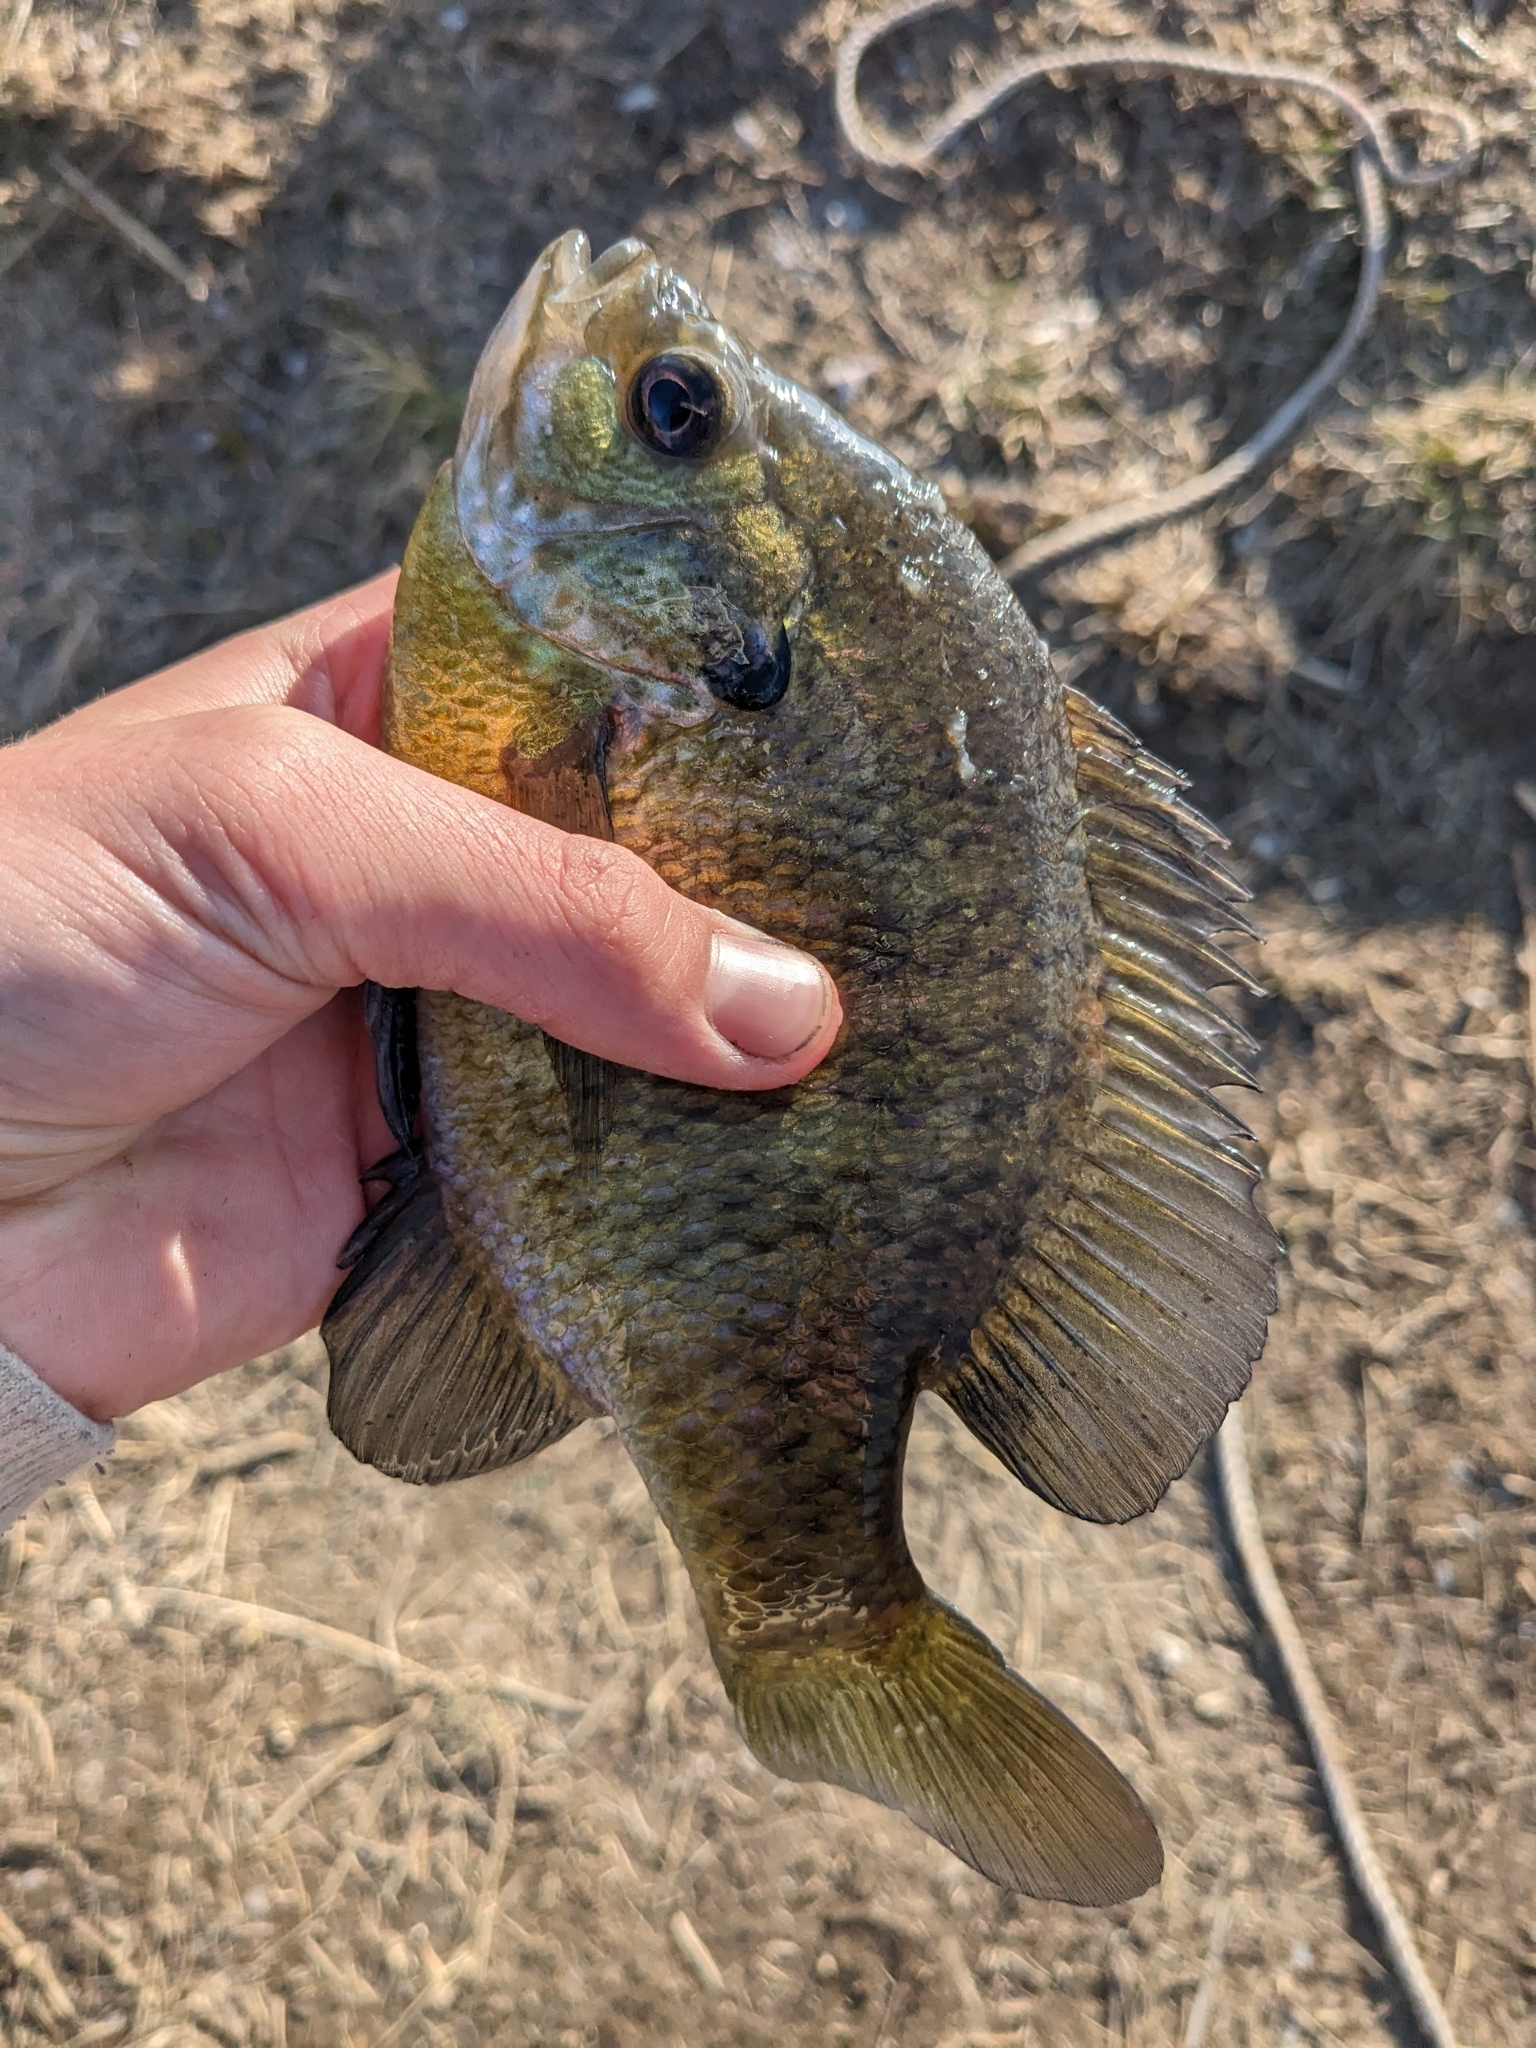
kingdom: Animalia
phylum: Chordata
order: Perciformes
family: Centrarchidae
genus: Lepomis
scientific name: Lepomis macrochirus
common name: Bluegill
